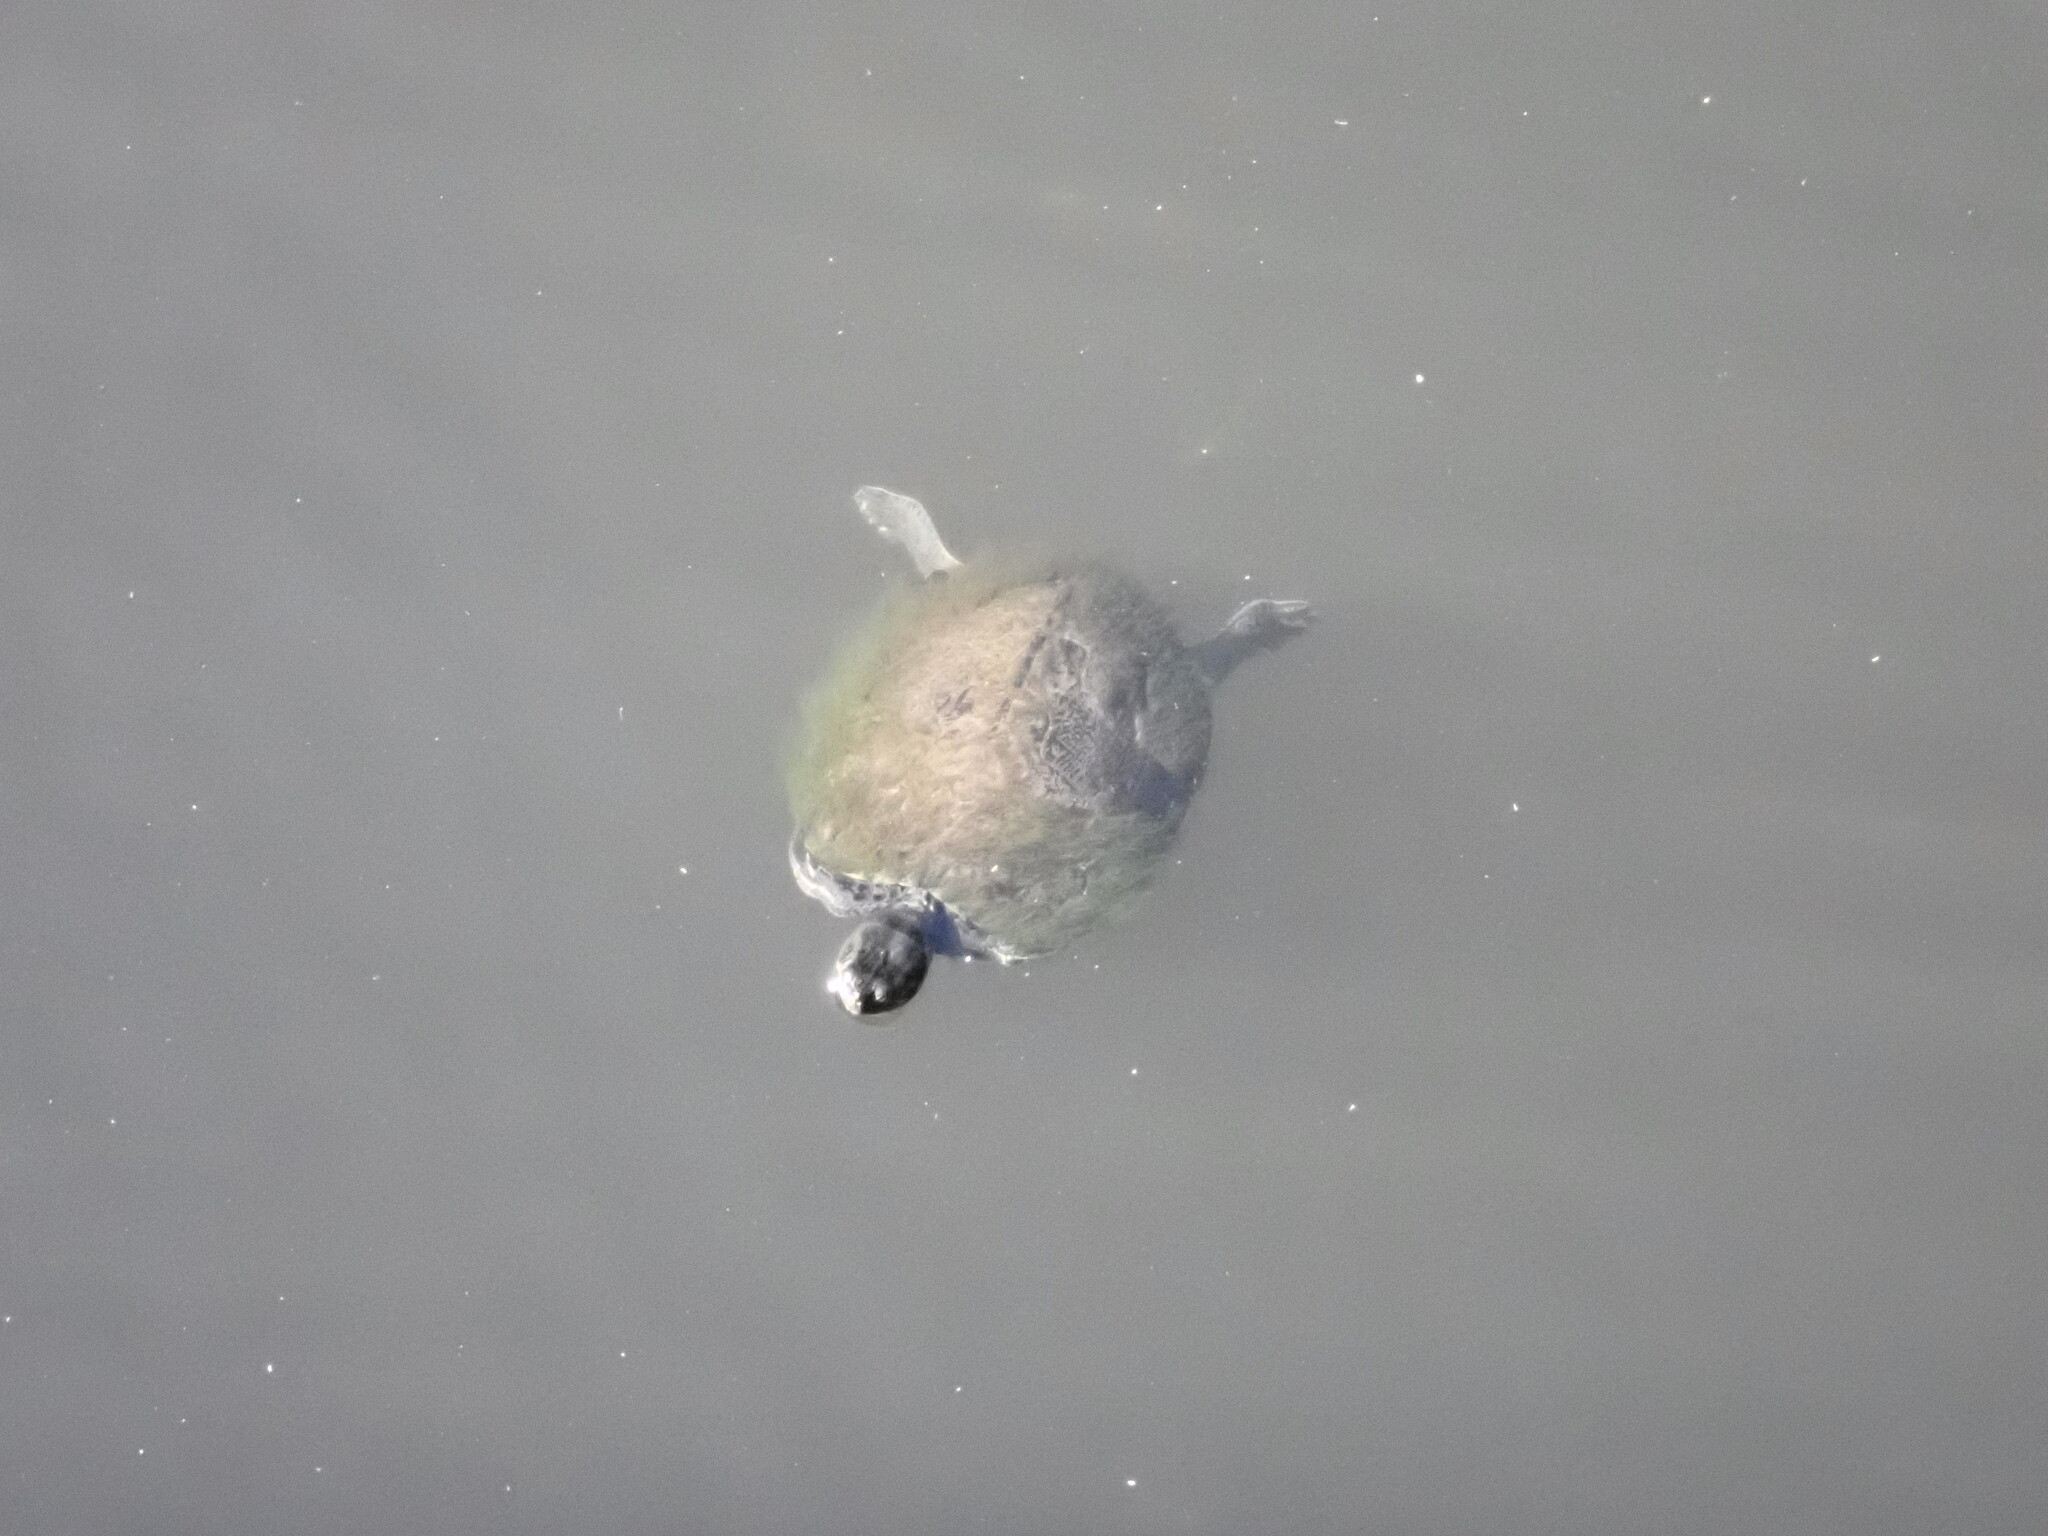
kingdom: Animalia
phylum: Chordata
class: Testudines
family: Emydidae
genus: Trachemys
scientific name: Trachemys scripta
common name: Slider
